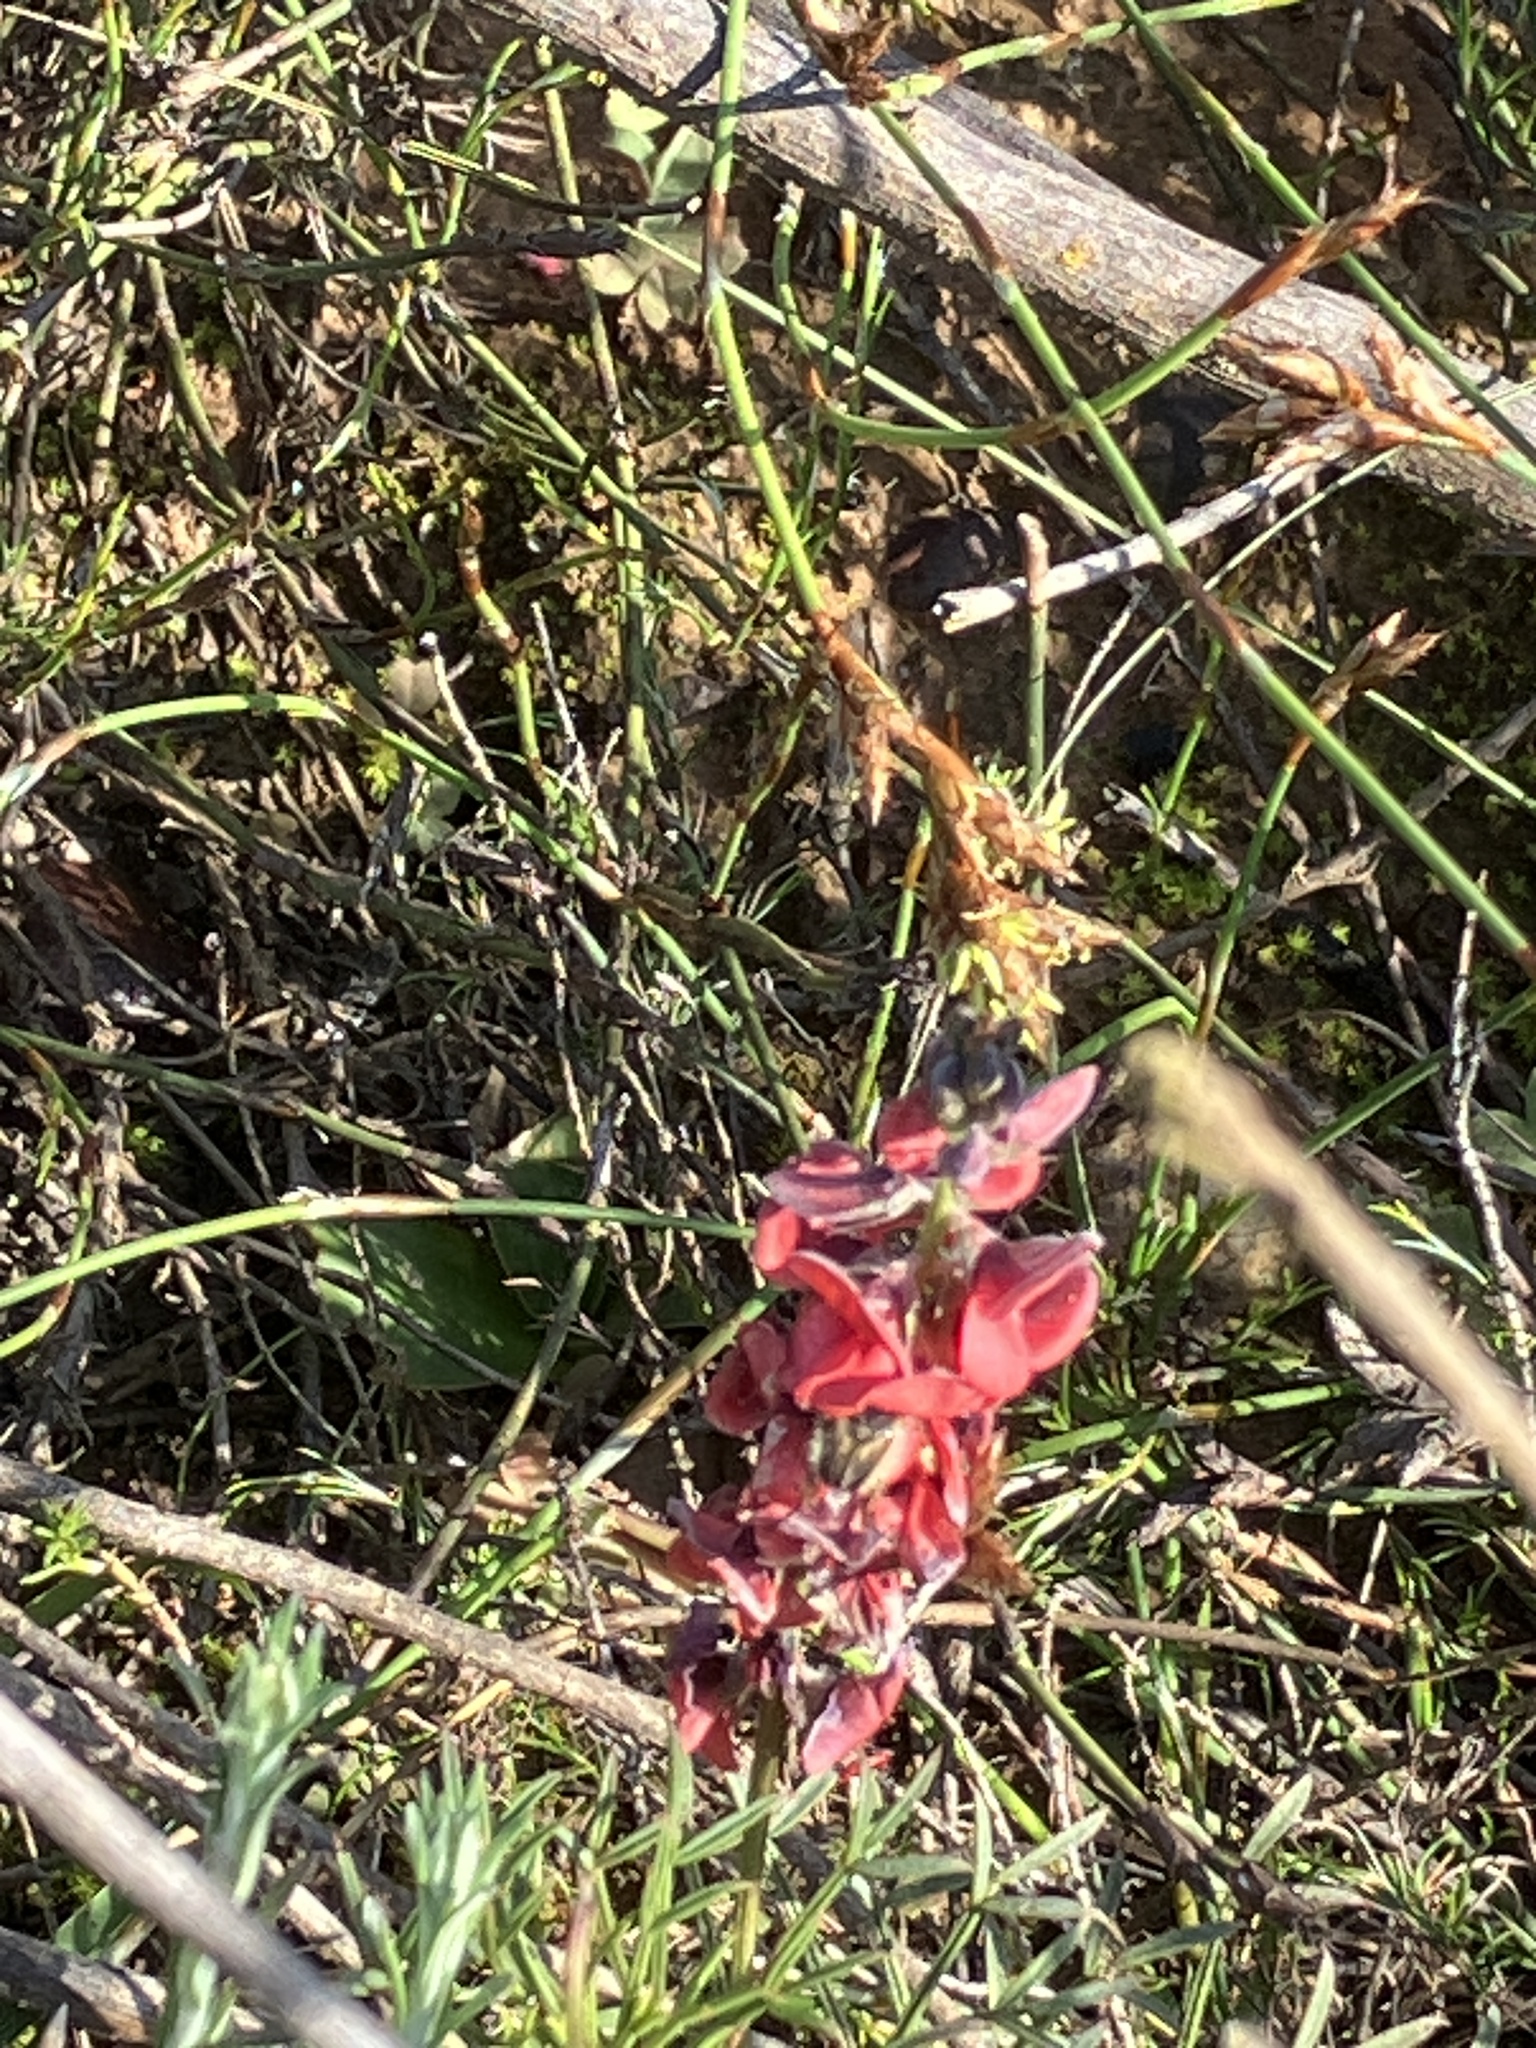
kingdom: Plantae
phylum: Tracheophyta
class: Magnoliopsida
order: Fabales
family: Fabaceae
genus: Indigofera
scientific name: Indigofera heterophylla
